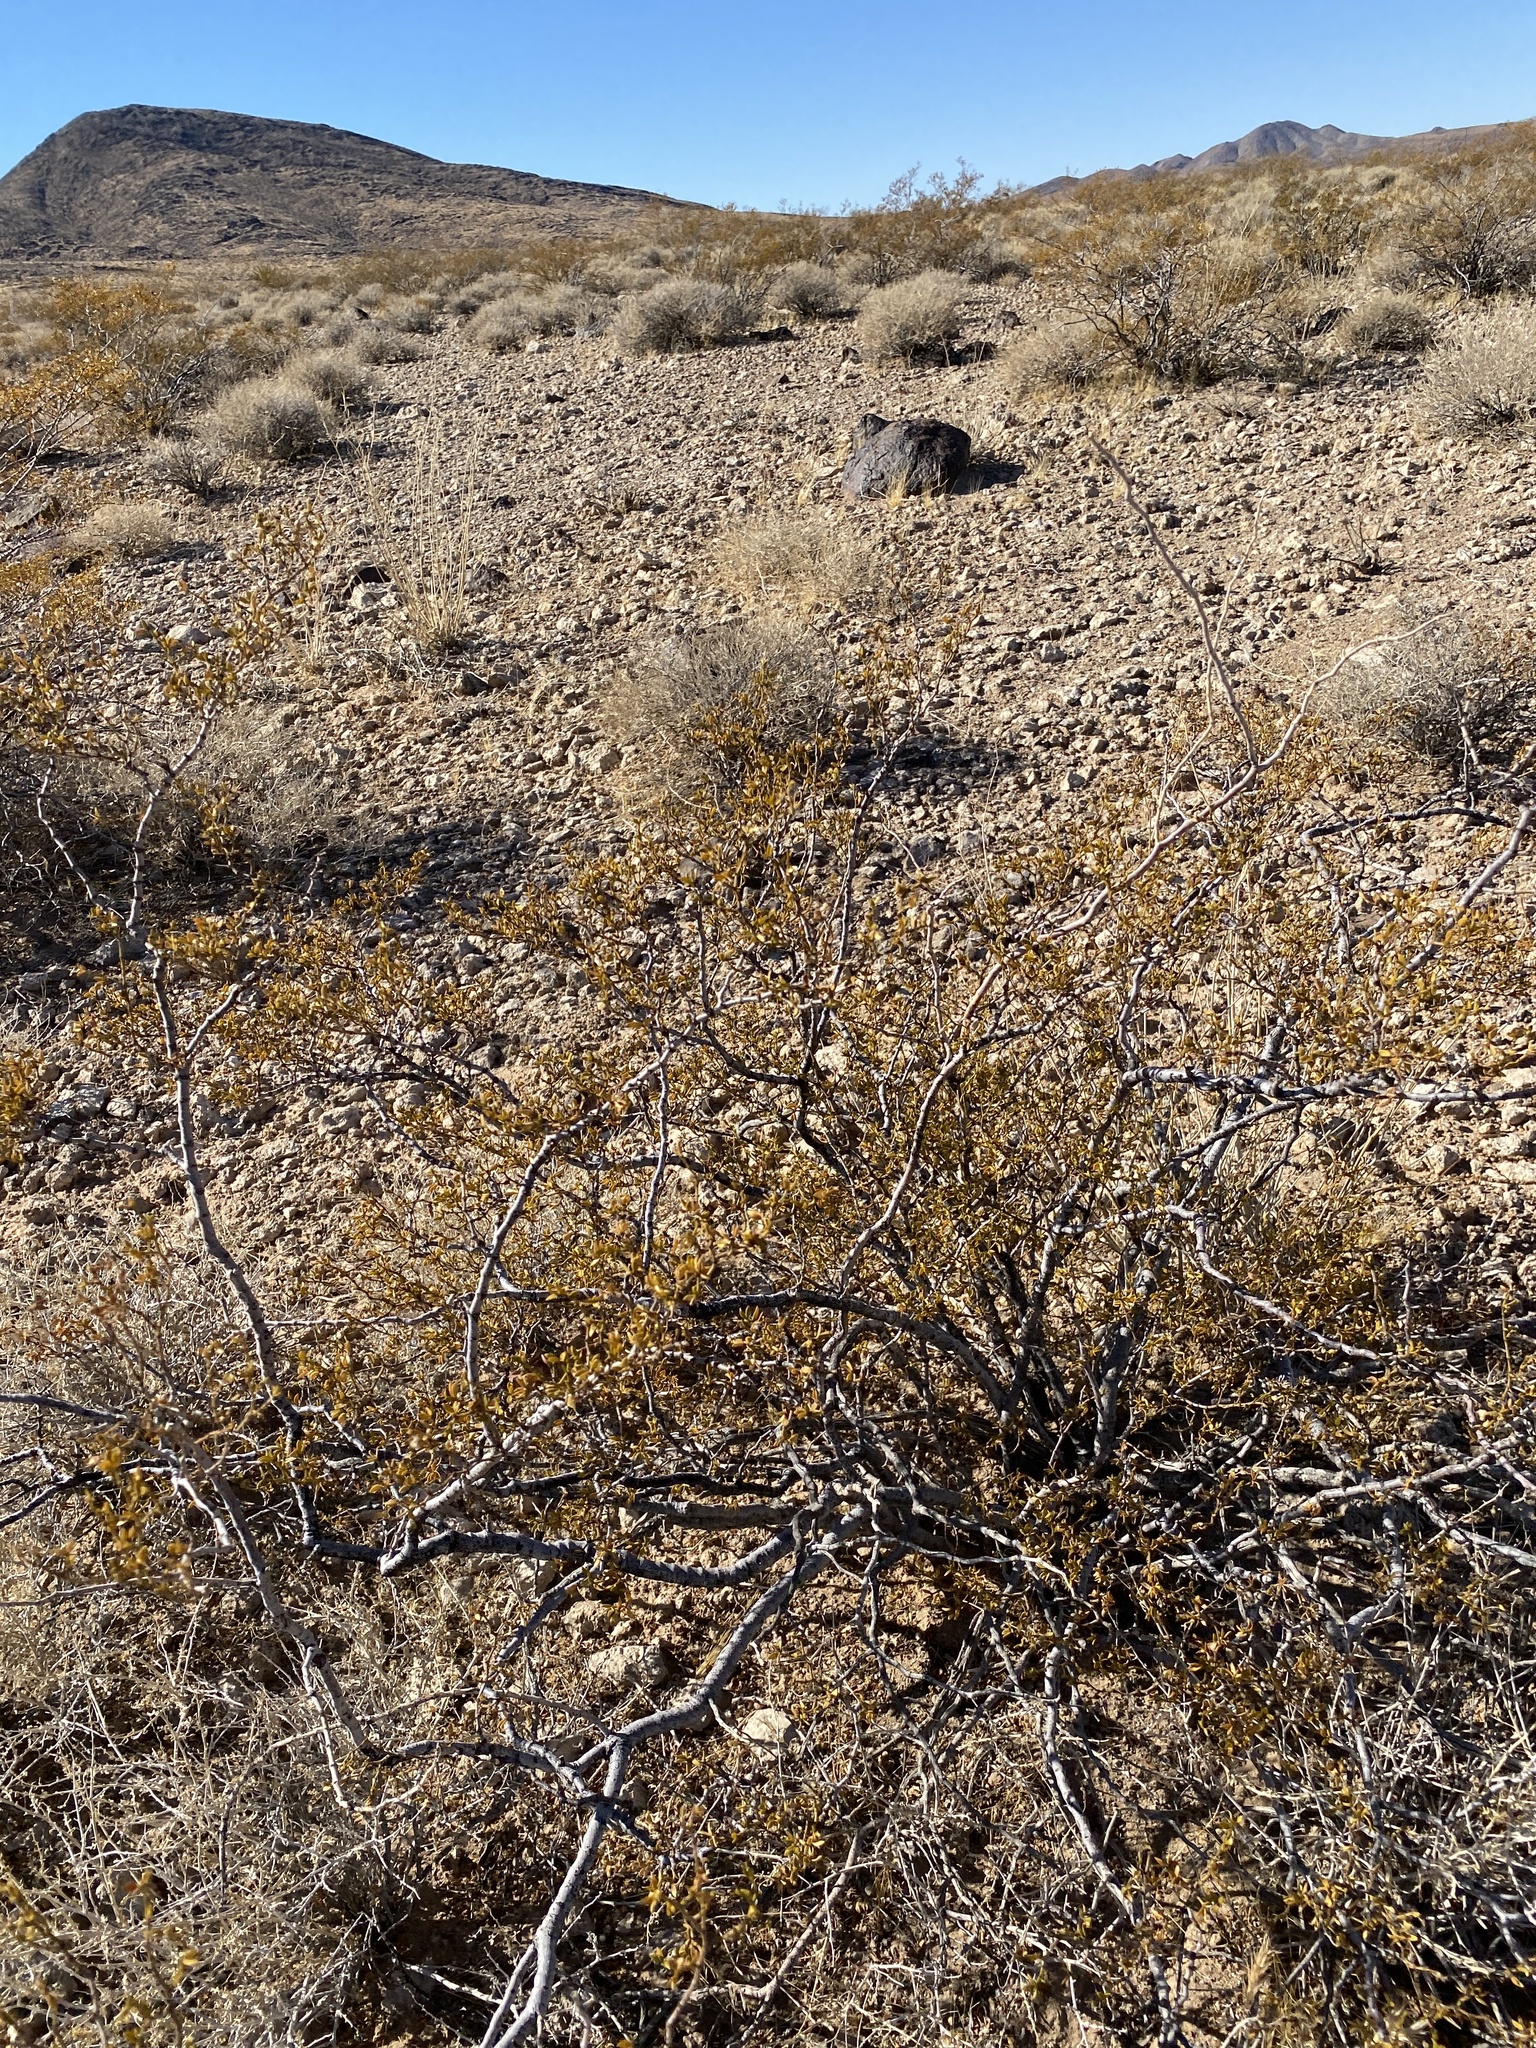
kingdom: Plantae
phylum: Tracheophyta
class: Magnoliopsida
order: Zygophyllales
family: Zygophyllaceae
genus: Larrea
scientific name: Larrea tridentata
